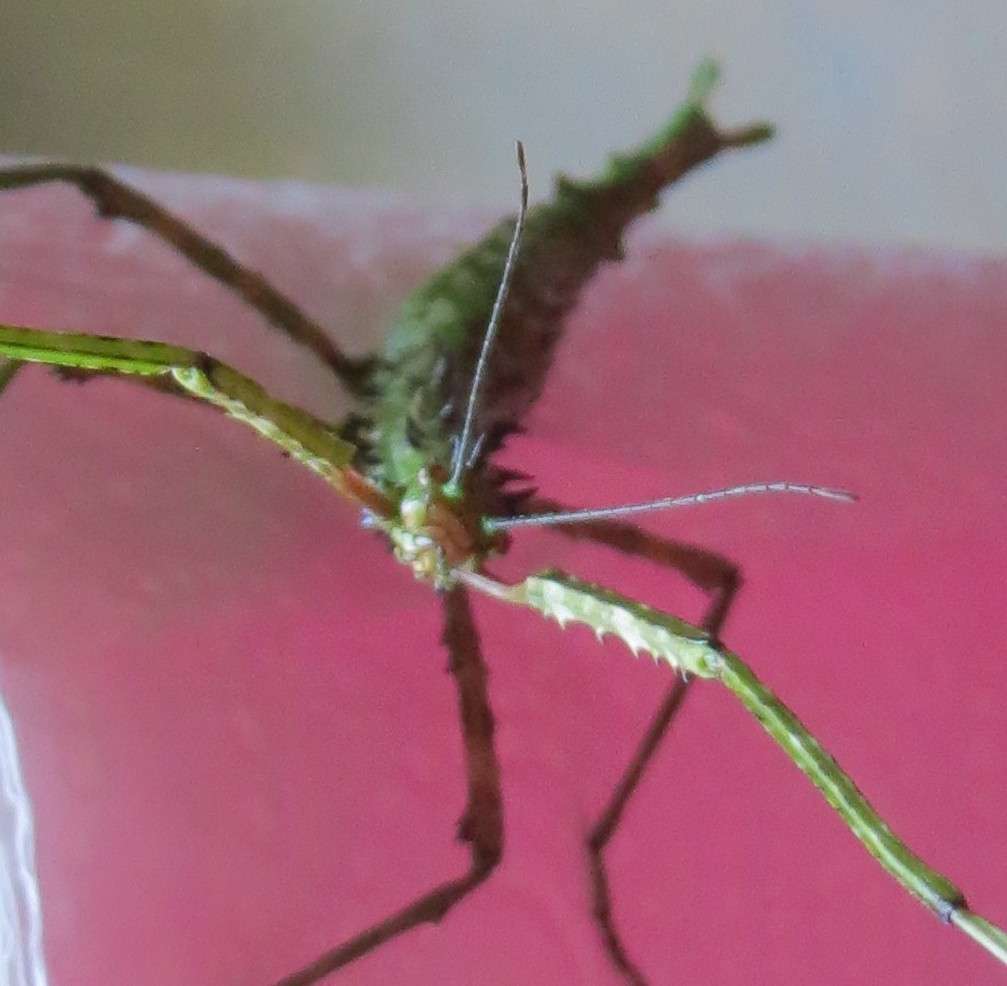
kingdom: Animalia
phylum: Arthropoda
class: Insecta
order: Phasmida
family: Phasmatidae
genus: Acanthoxyla
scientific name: Acanthoxyla prasina
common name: Black-spined stick insect
